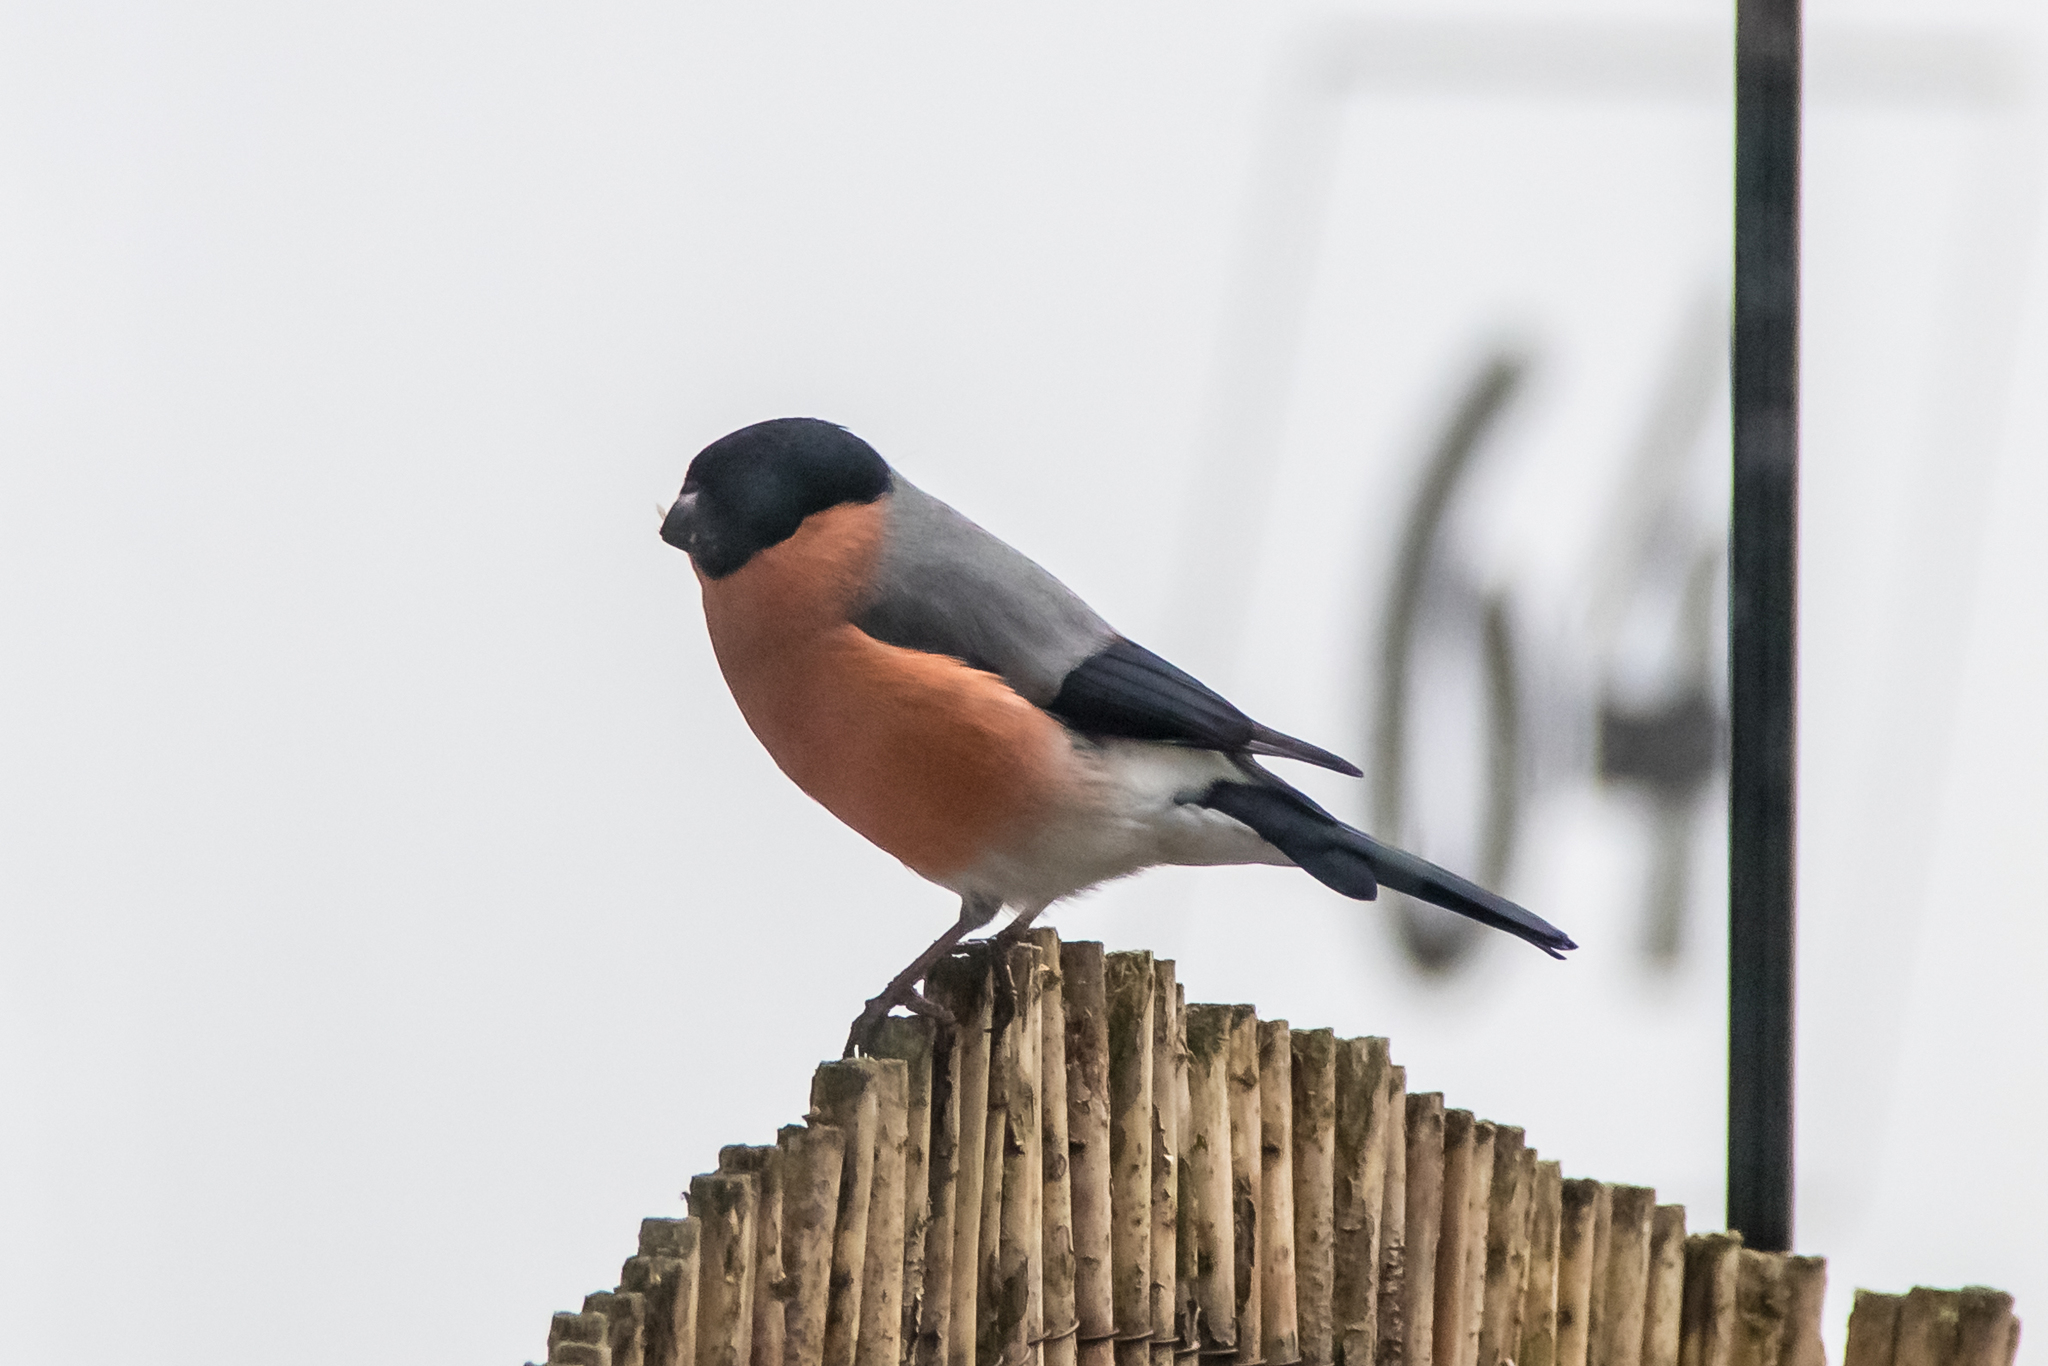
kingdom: Animalia
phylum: Chordata
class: Aves
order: Passeriformes
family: Fringillidae
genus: Pyrrhula
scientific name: Pyrrhula pyrrhula
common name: Eurasian bullfinch
